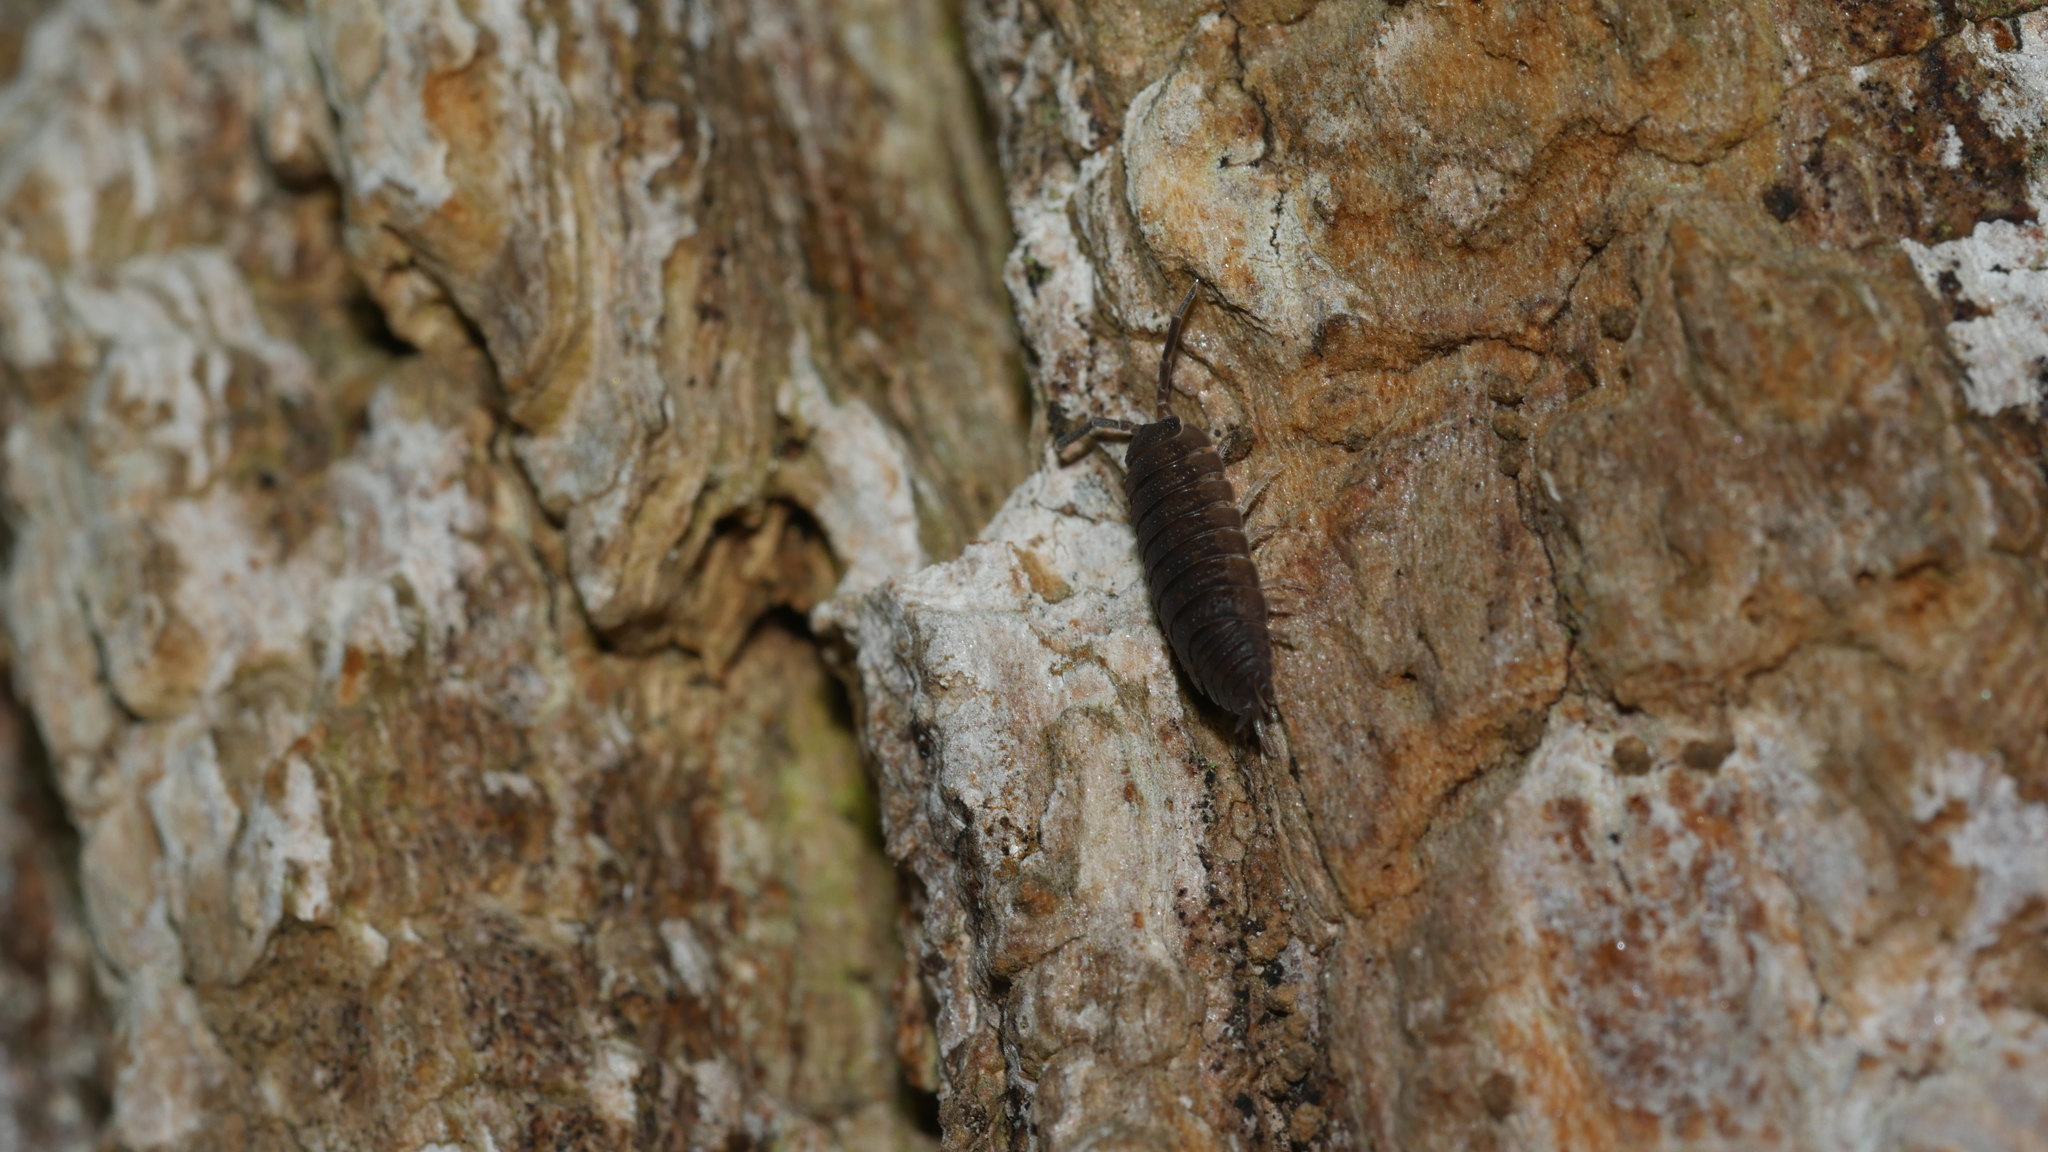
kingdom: Animalia
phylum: Arthropoda
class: Malacostraca
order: Isopoda
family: Porcellionidae
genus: Porcellio
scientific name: Porcellio scaber
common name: Common rough woodlouse
